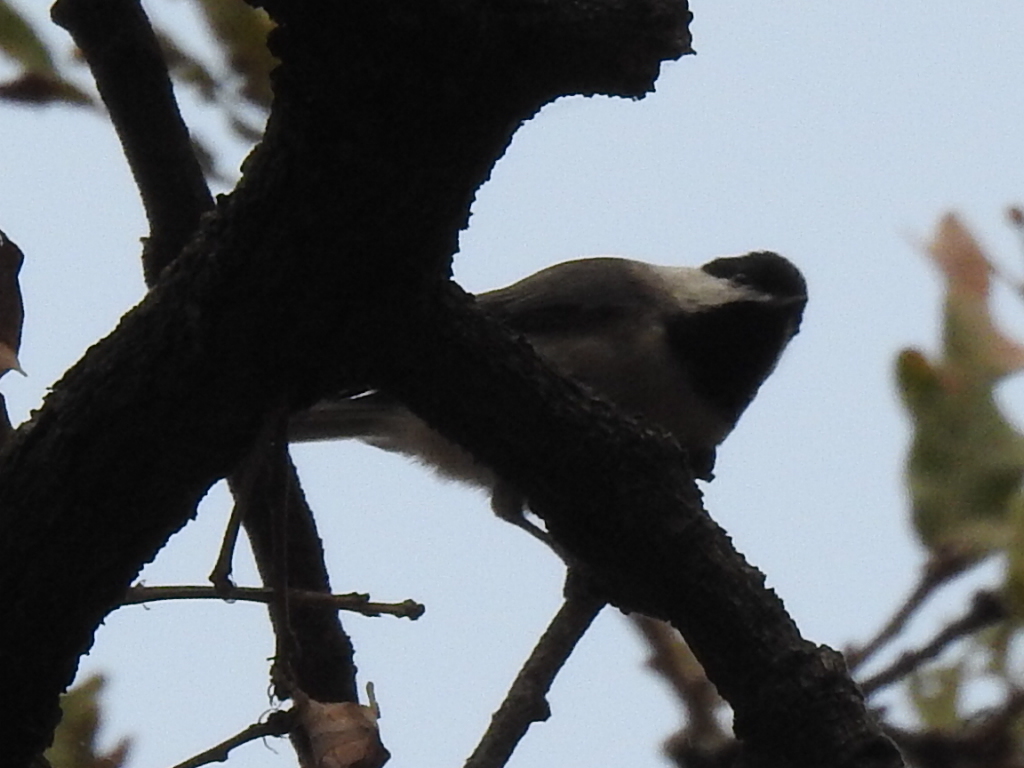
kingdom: Animalia
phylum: Chordata
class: Aves
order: Passeriformes
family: Paridae
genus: Poecile
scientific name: Poecile carolinensis
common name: Carolina chickadee
